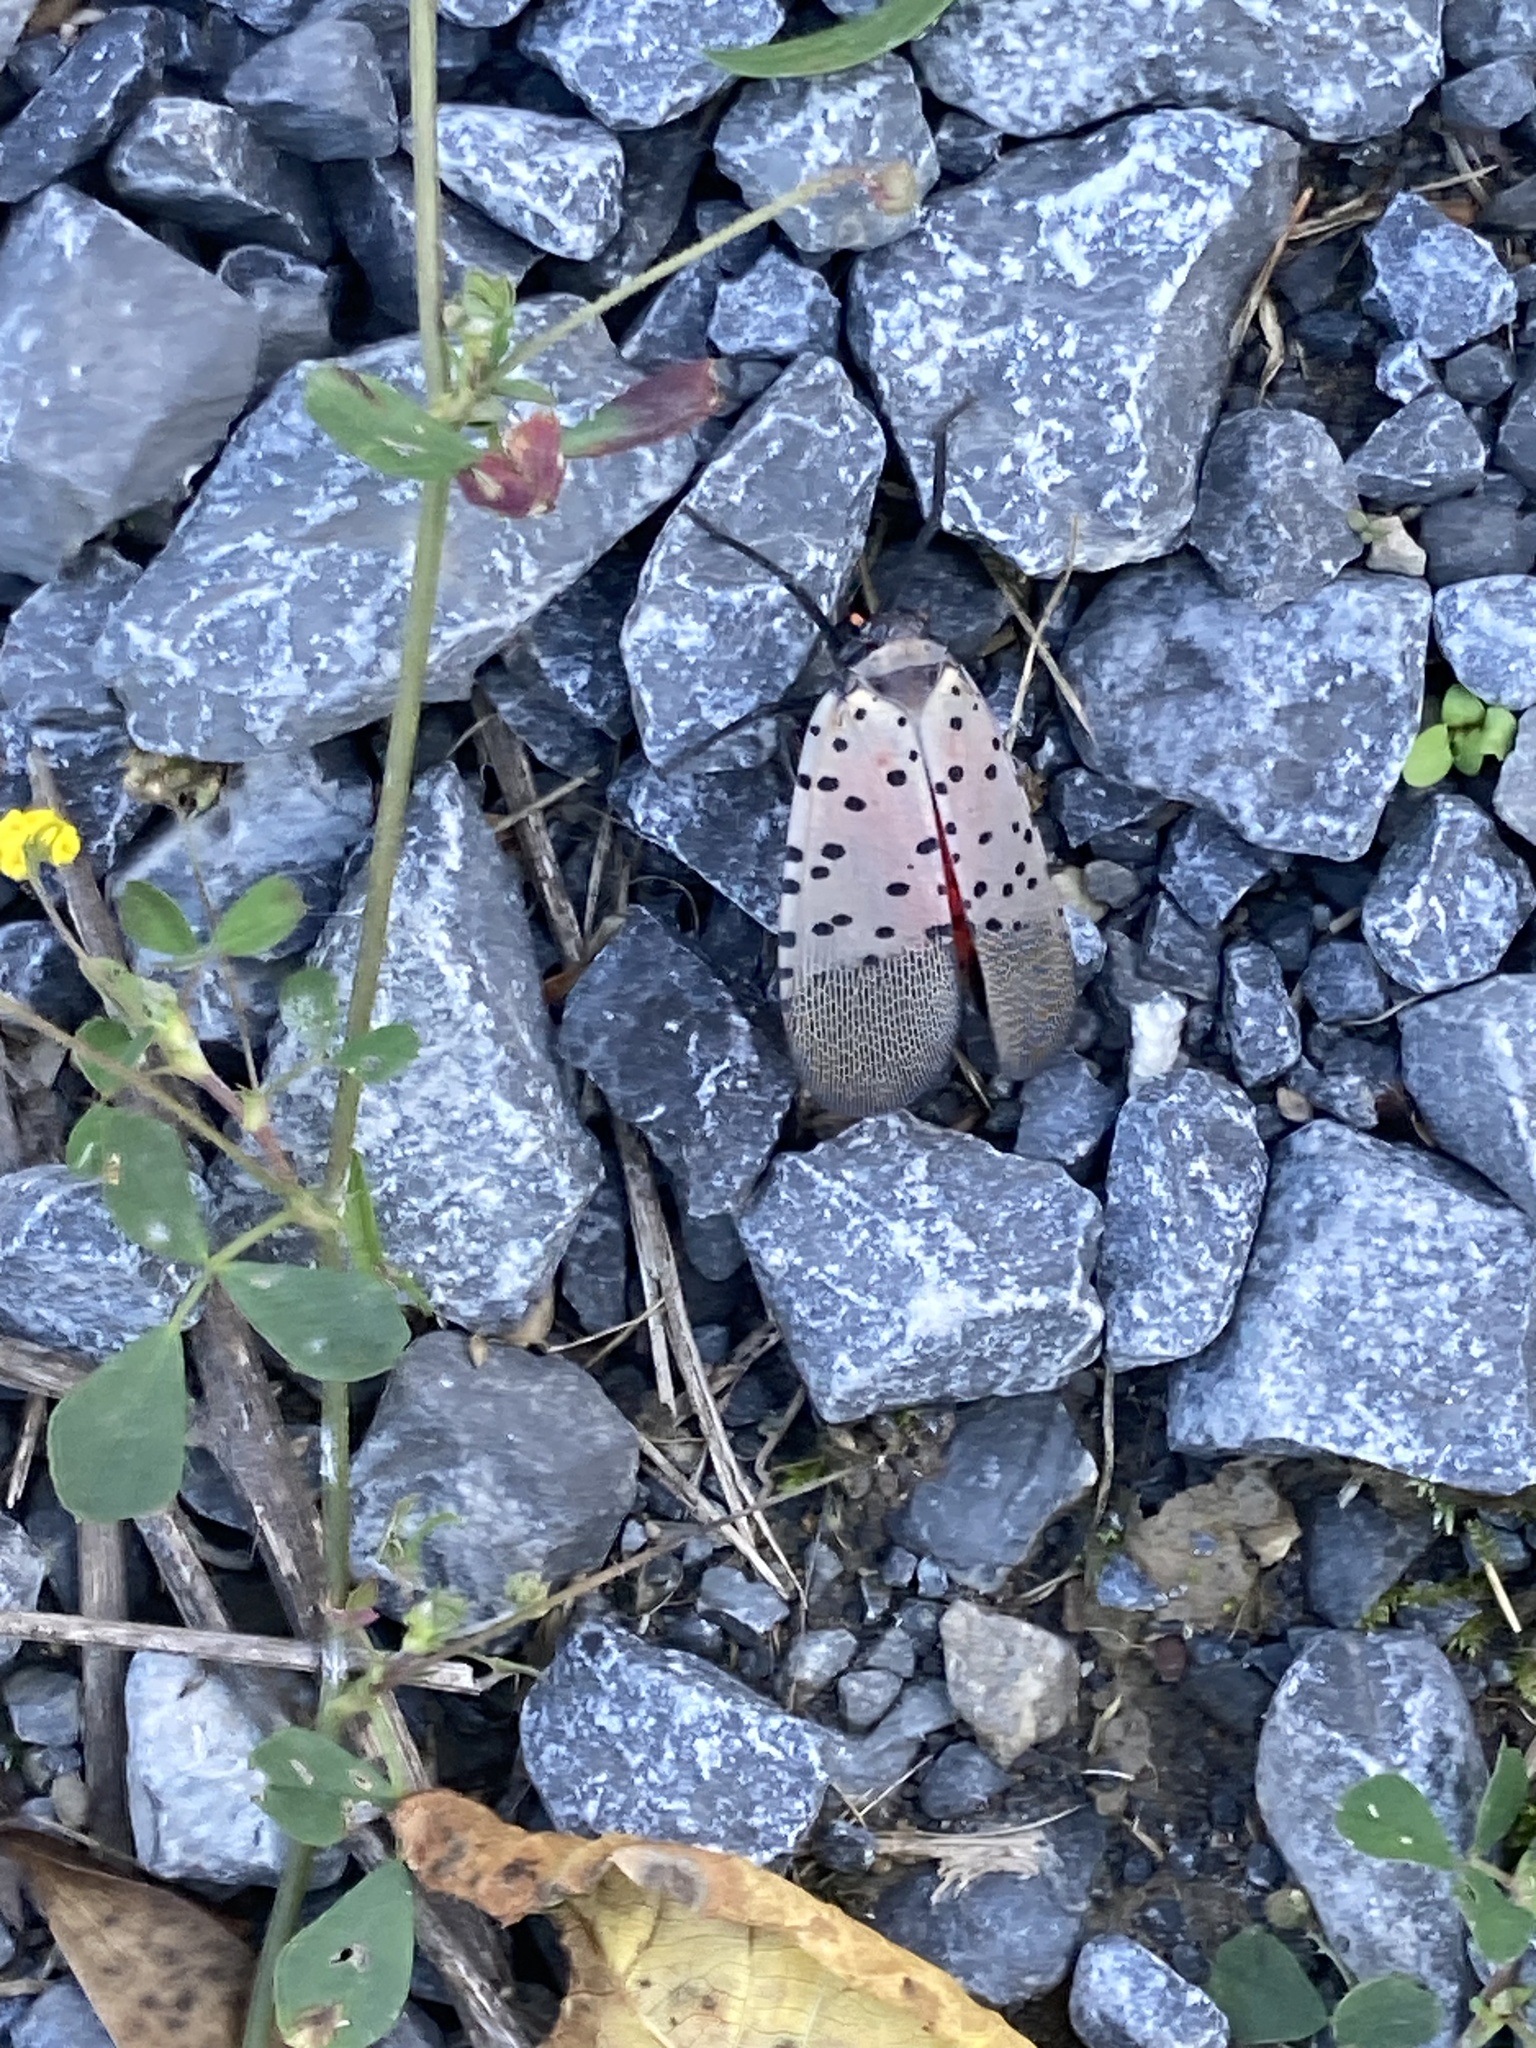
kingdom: Animalia
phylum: Arthropoda
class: Insecta
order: Hemiptera
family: Fulgoridae
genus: Lycorma
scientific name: Lycorma delicatula
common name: Spotted lanternfly
